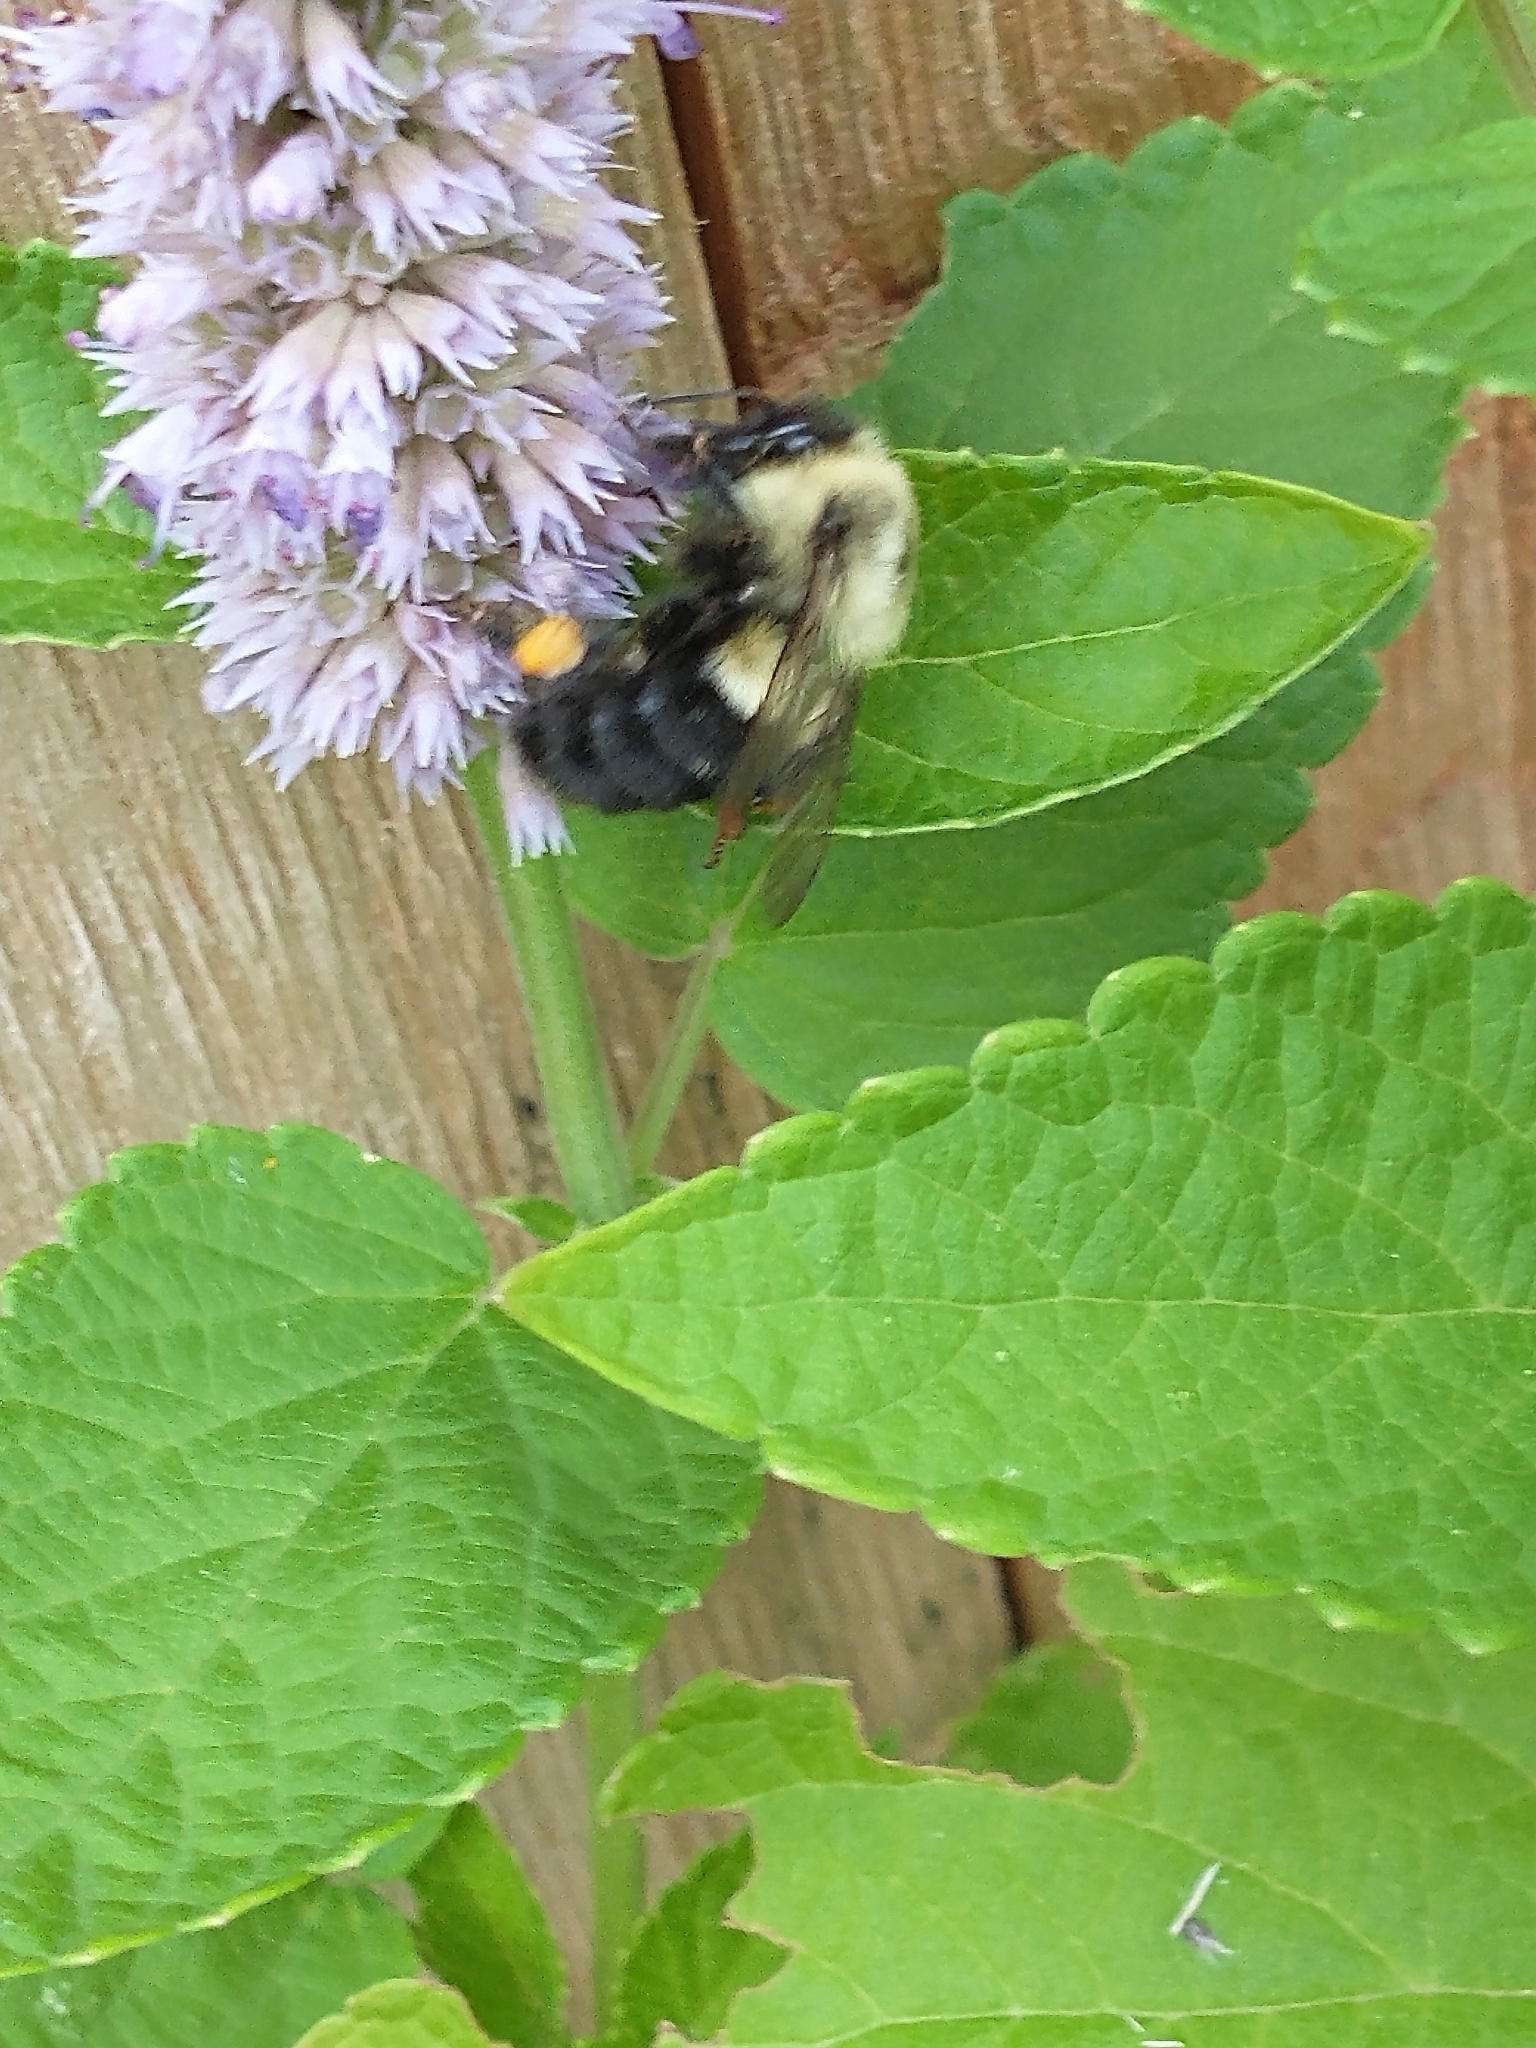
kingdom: Animalia
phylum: Arthropoda
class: Insecta
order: Hymenoptera
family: Apidae
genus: Bombus
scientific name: Bombus impatiens
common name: Common eastern bumble bee
